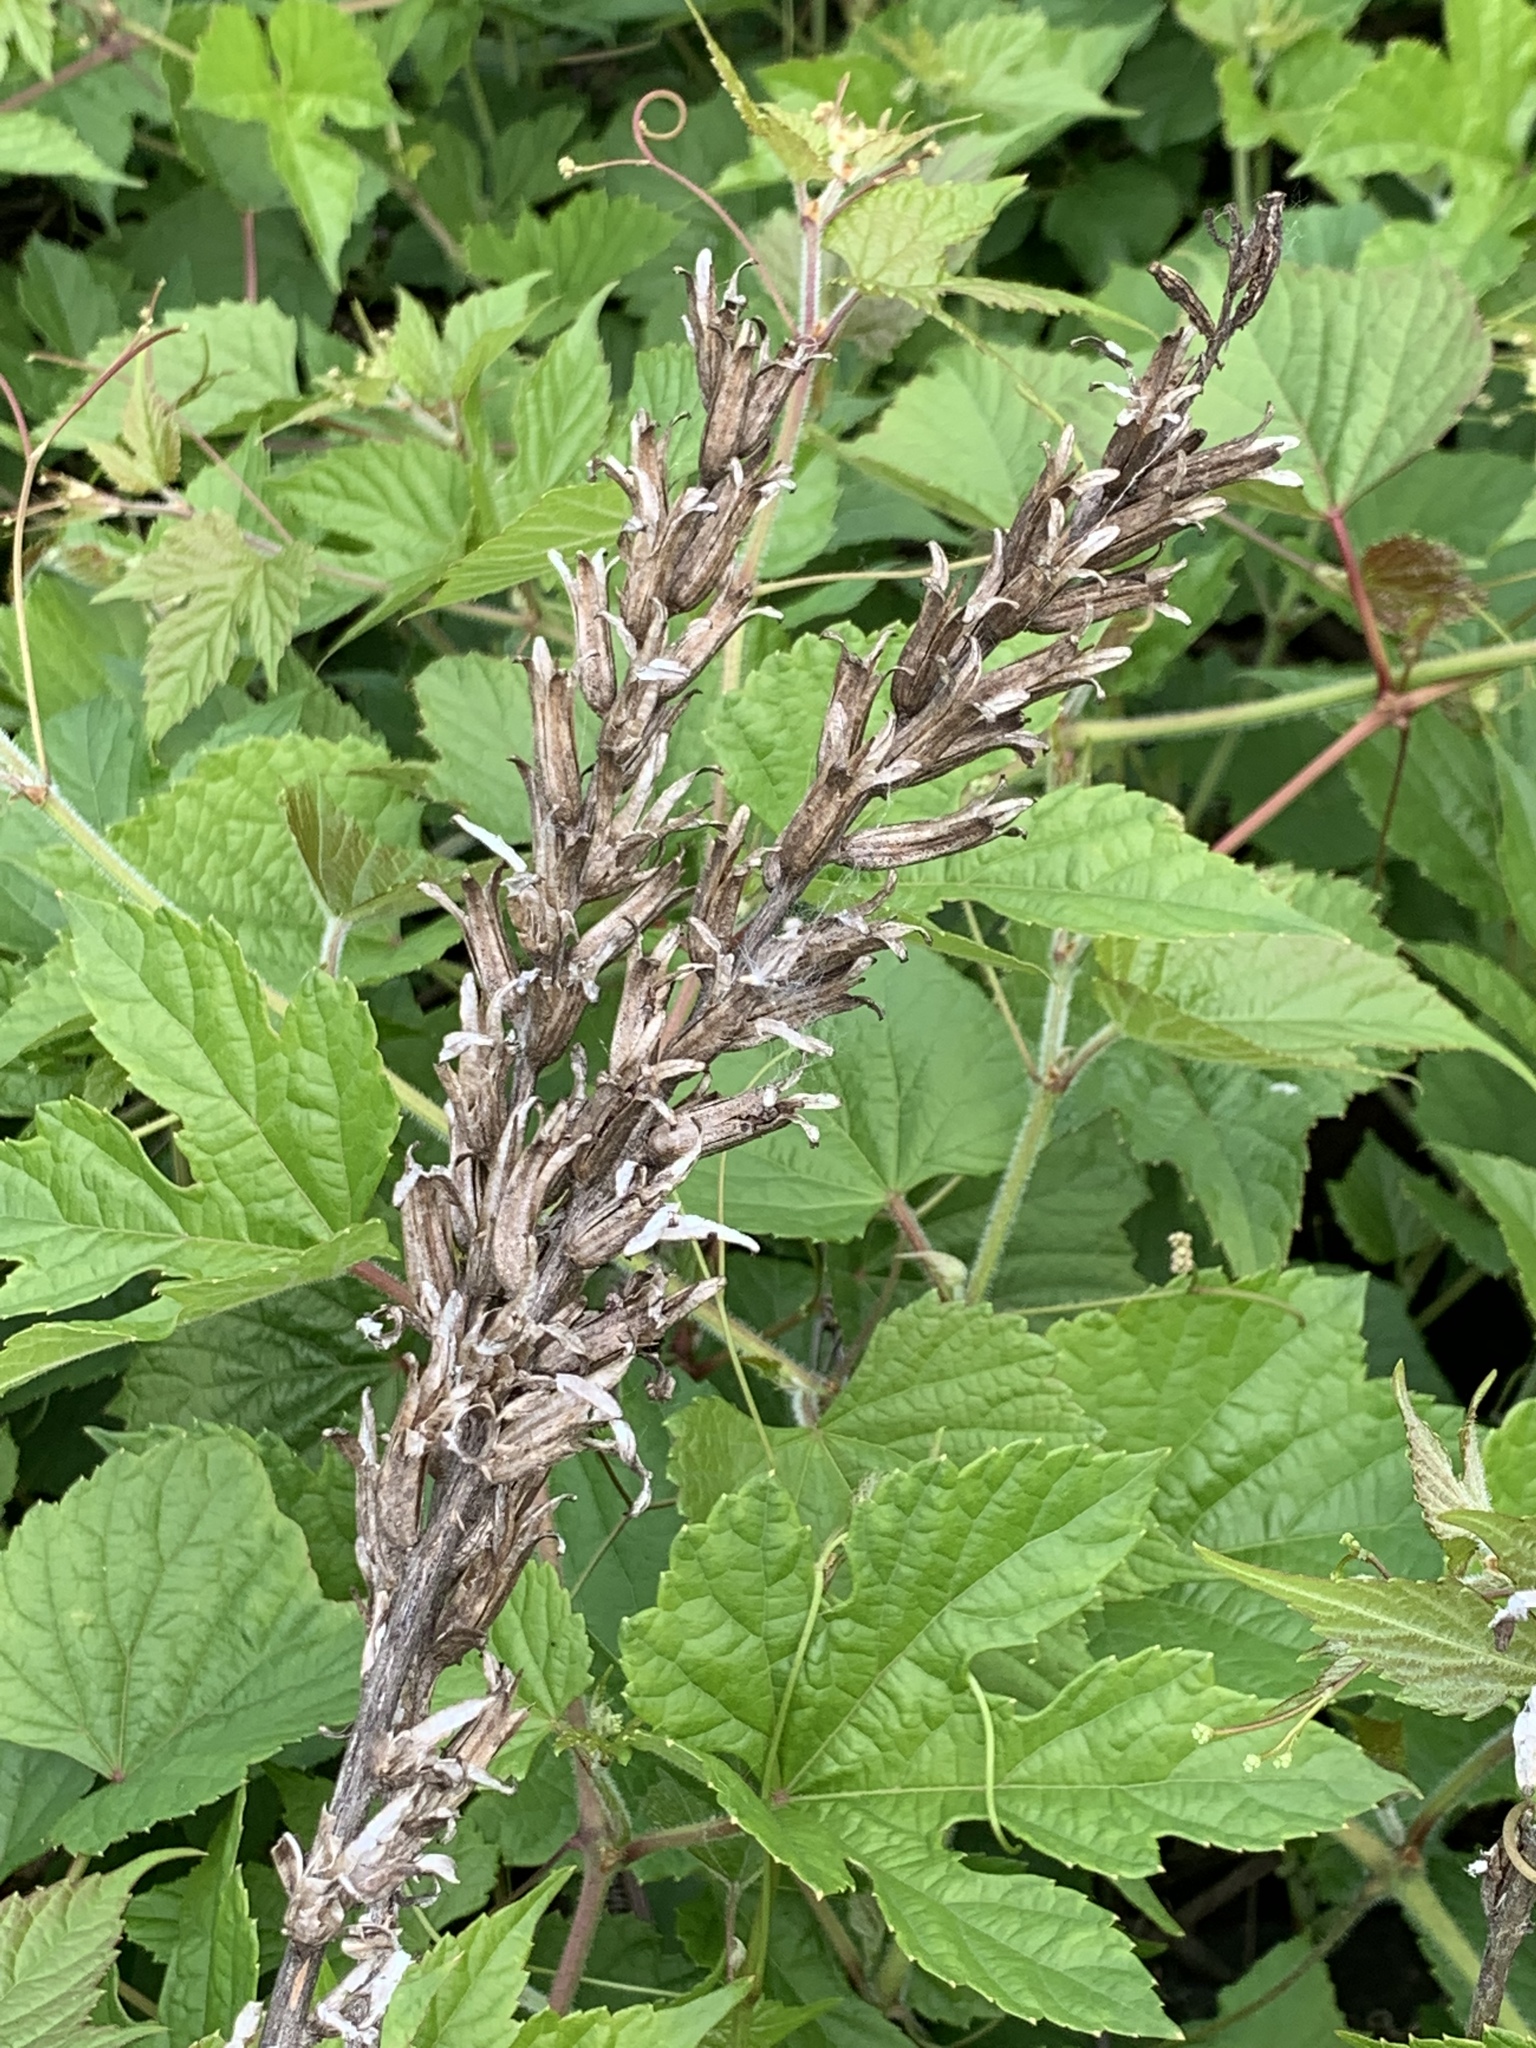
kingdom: Plantae
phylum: Tracheophyta
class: Magnoliopsida
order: Myrtales
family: Onagraceae
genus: Oenothera
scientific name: Oenothera biennis
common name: Common evening-primrose
